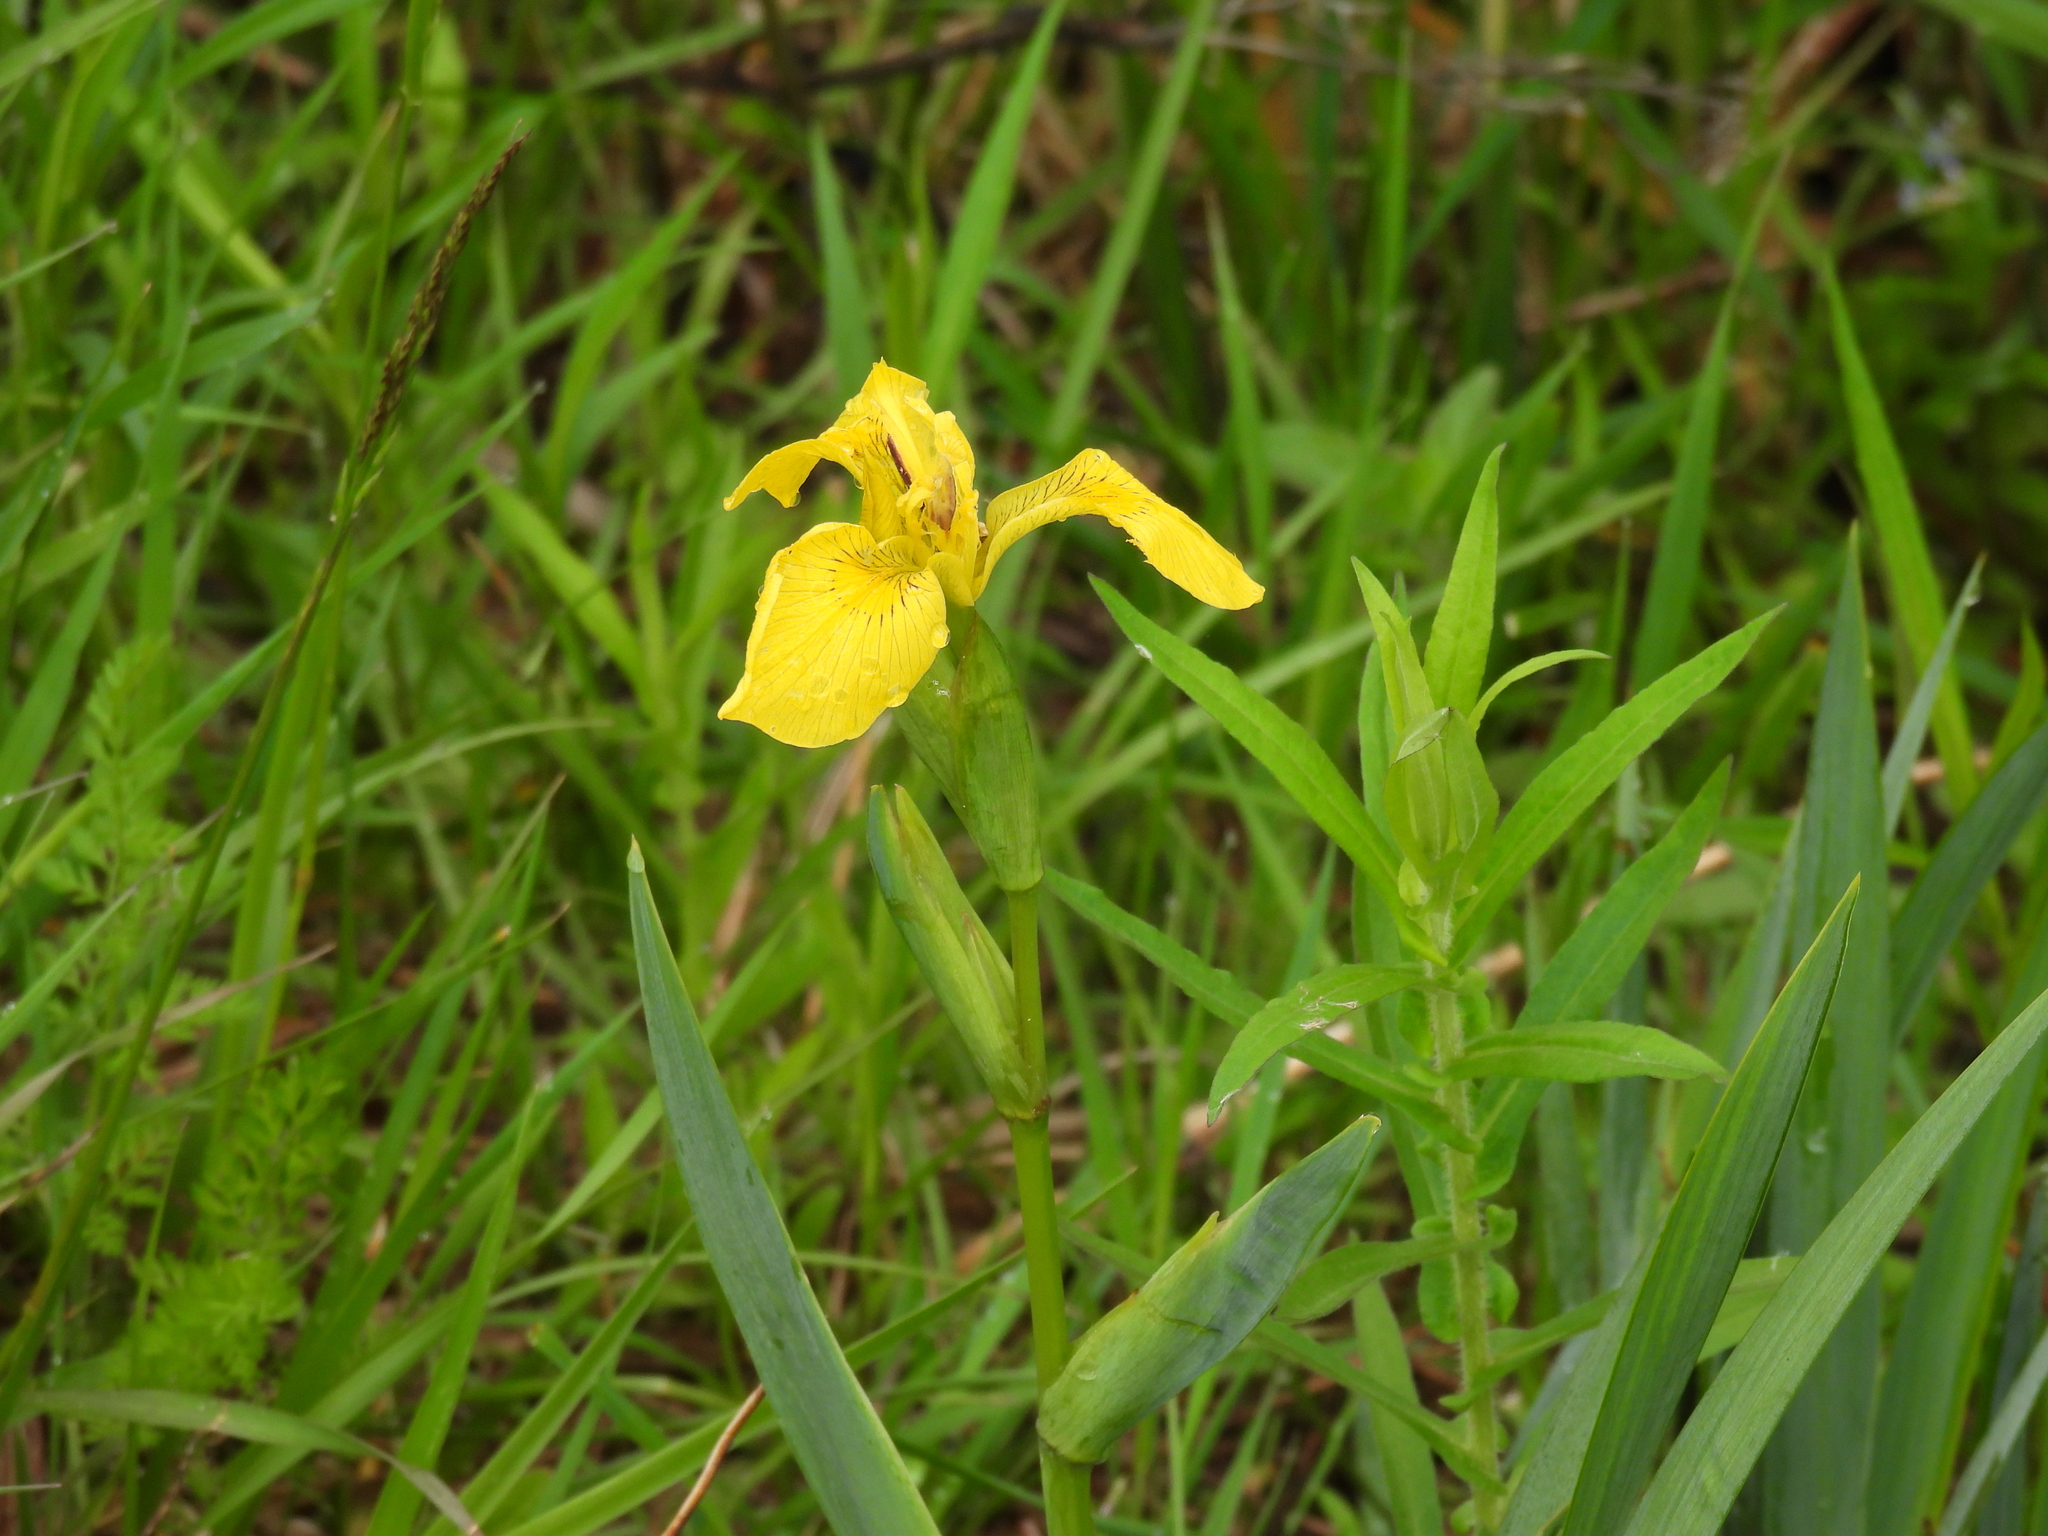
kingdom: Plantae
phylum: Tracheophyta
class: Liliopsida
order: Asparagales
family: Iridaceae
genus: Iris
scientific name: Iris pseudacorus
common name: Yellow flag
